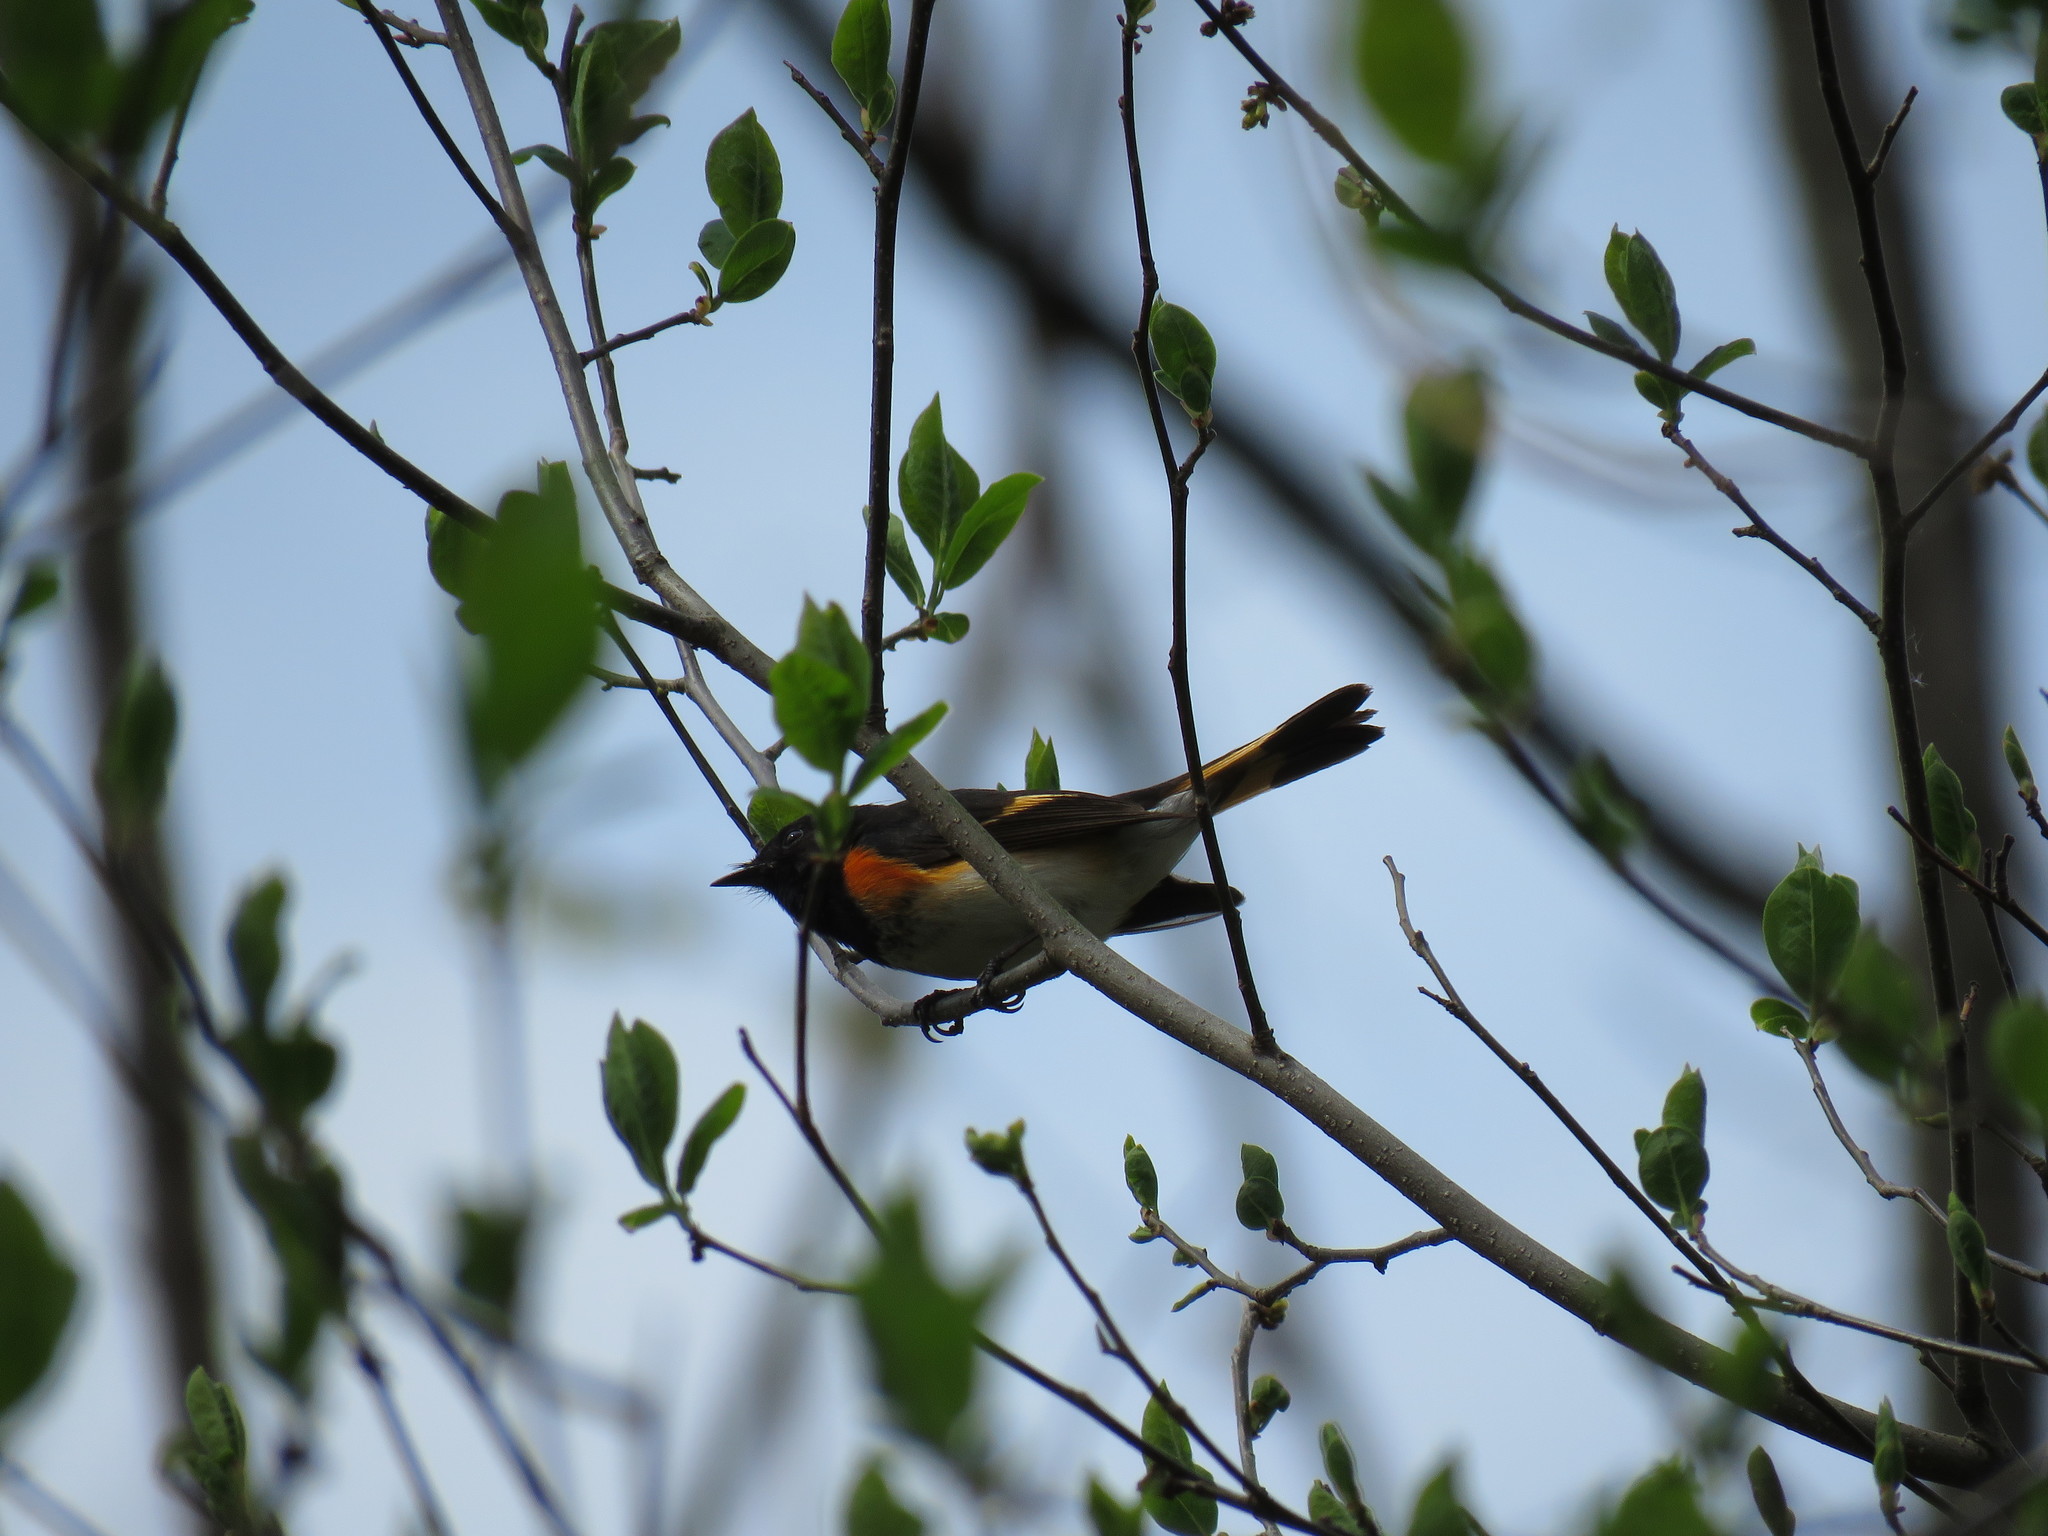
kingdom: Animalia
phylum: Chordata
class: Aves
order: Passeriformes
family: Parulidae
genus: Setophaga
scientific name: Setophaga ruticilla
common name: American redstart
